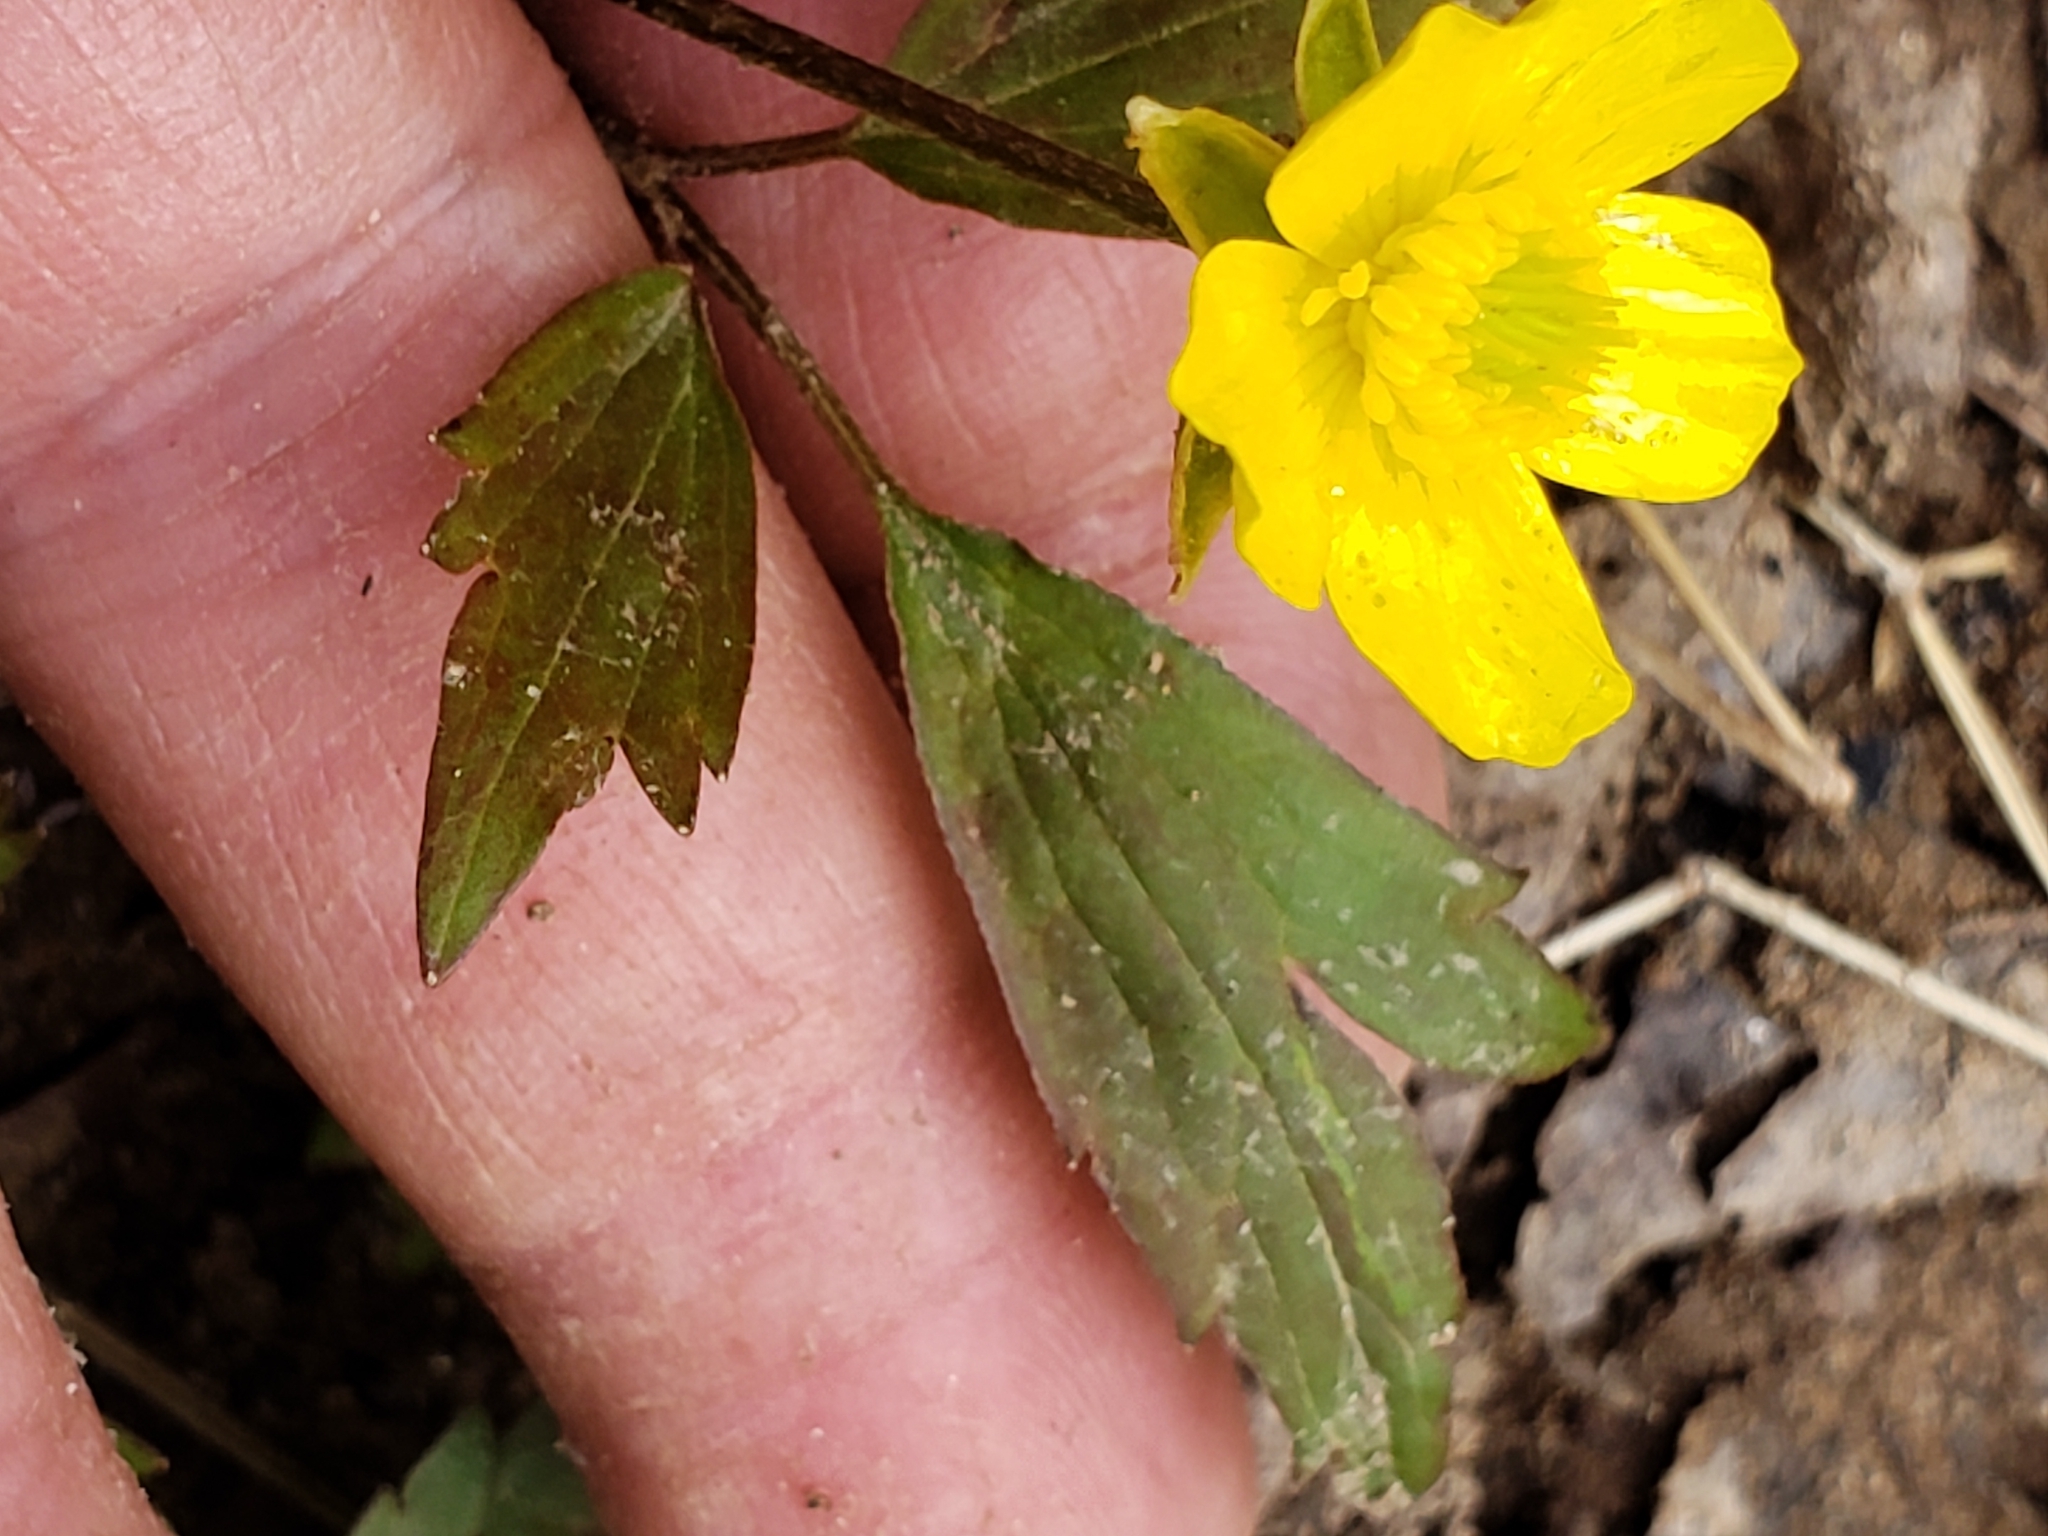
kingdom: Plantae
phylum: Tracheophyta
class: Magnoliopsida
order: Ranunculales
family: Ranunculaceae
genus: Ranunculus
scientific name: Ranunculus hispidus
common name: Bristly buttercup
